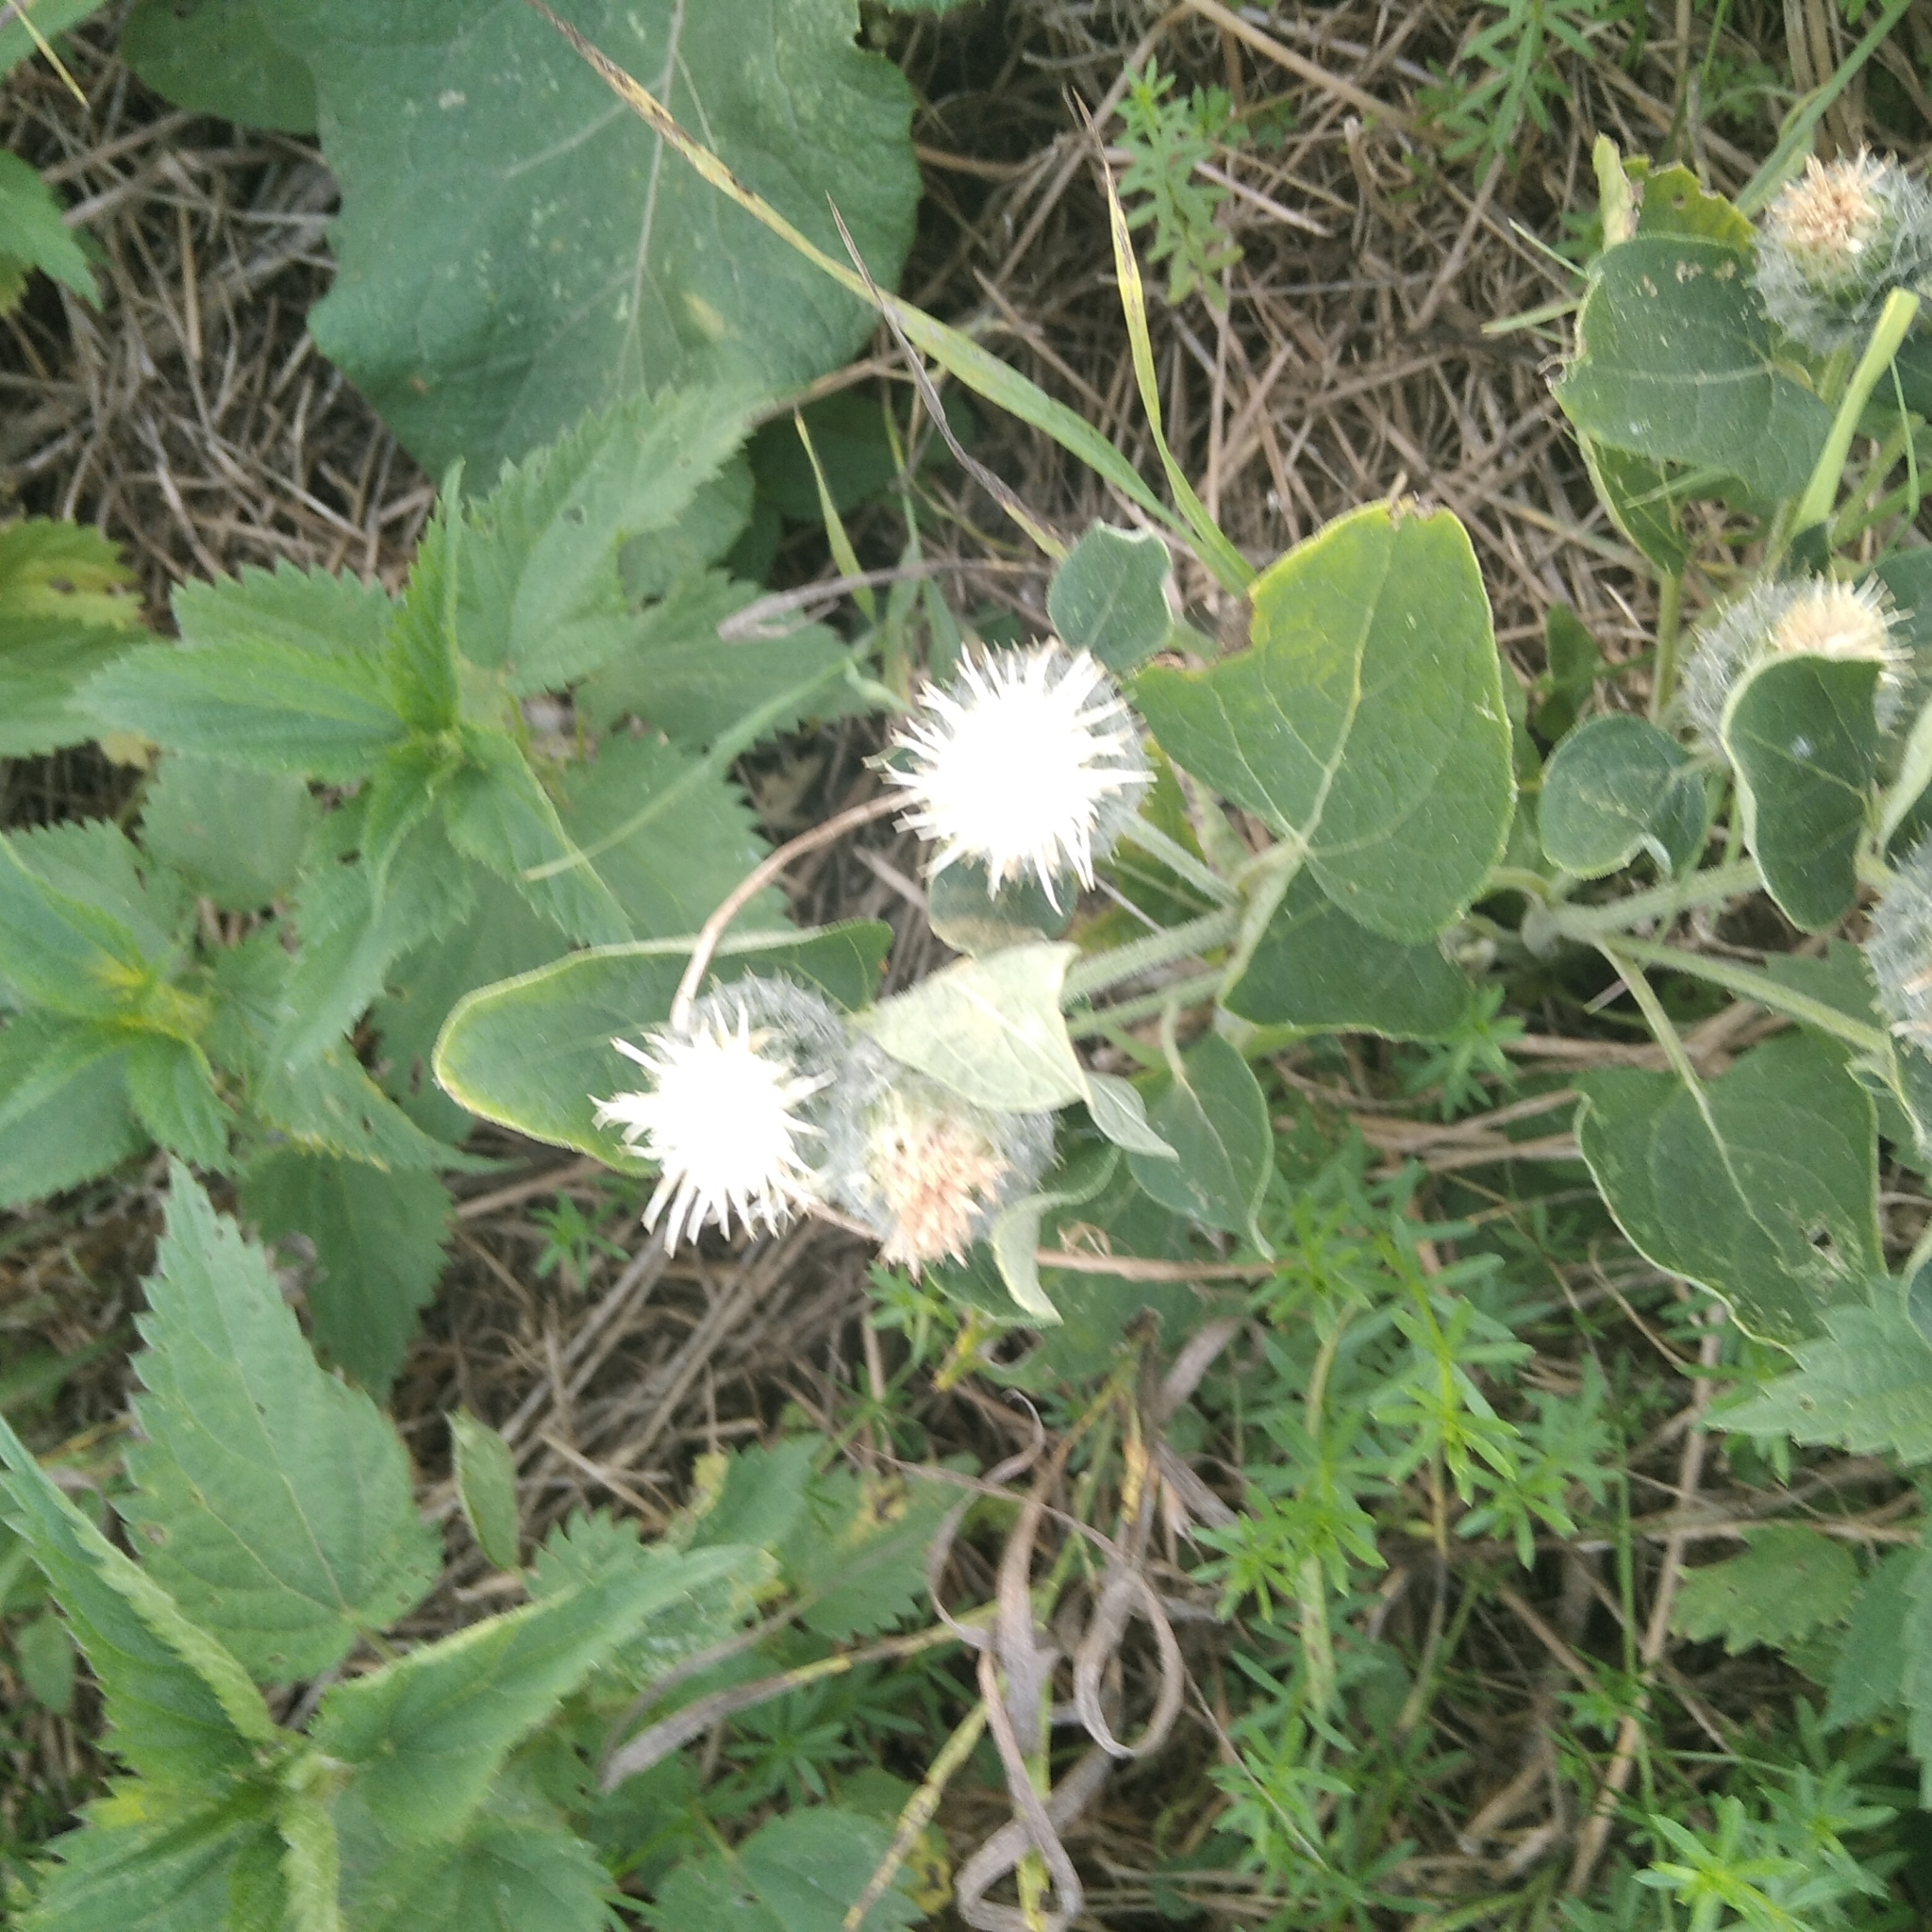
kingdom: Plantae
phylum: Tracheophyta
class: Magnoliopsida
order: Asterales
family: Asteraceae
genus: Arctium
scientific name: Arctium tomentosum
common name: Woolly burdock
